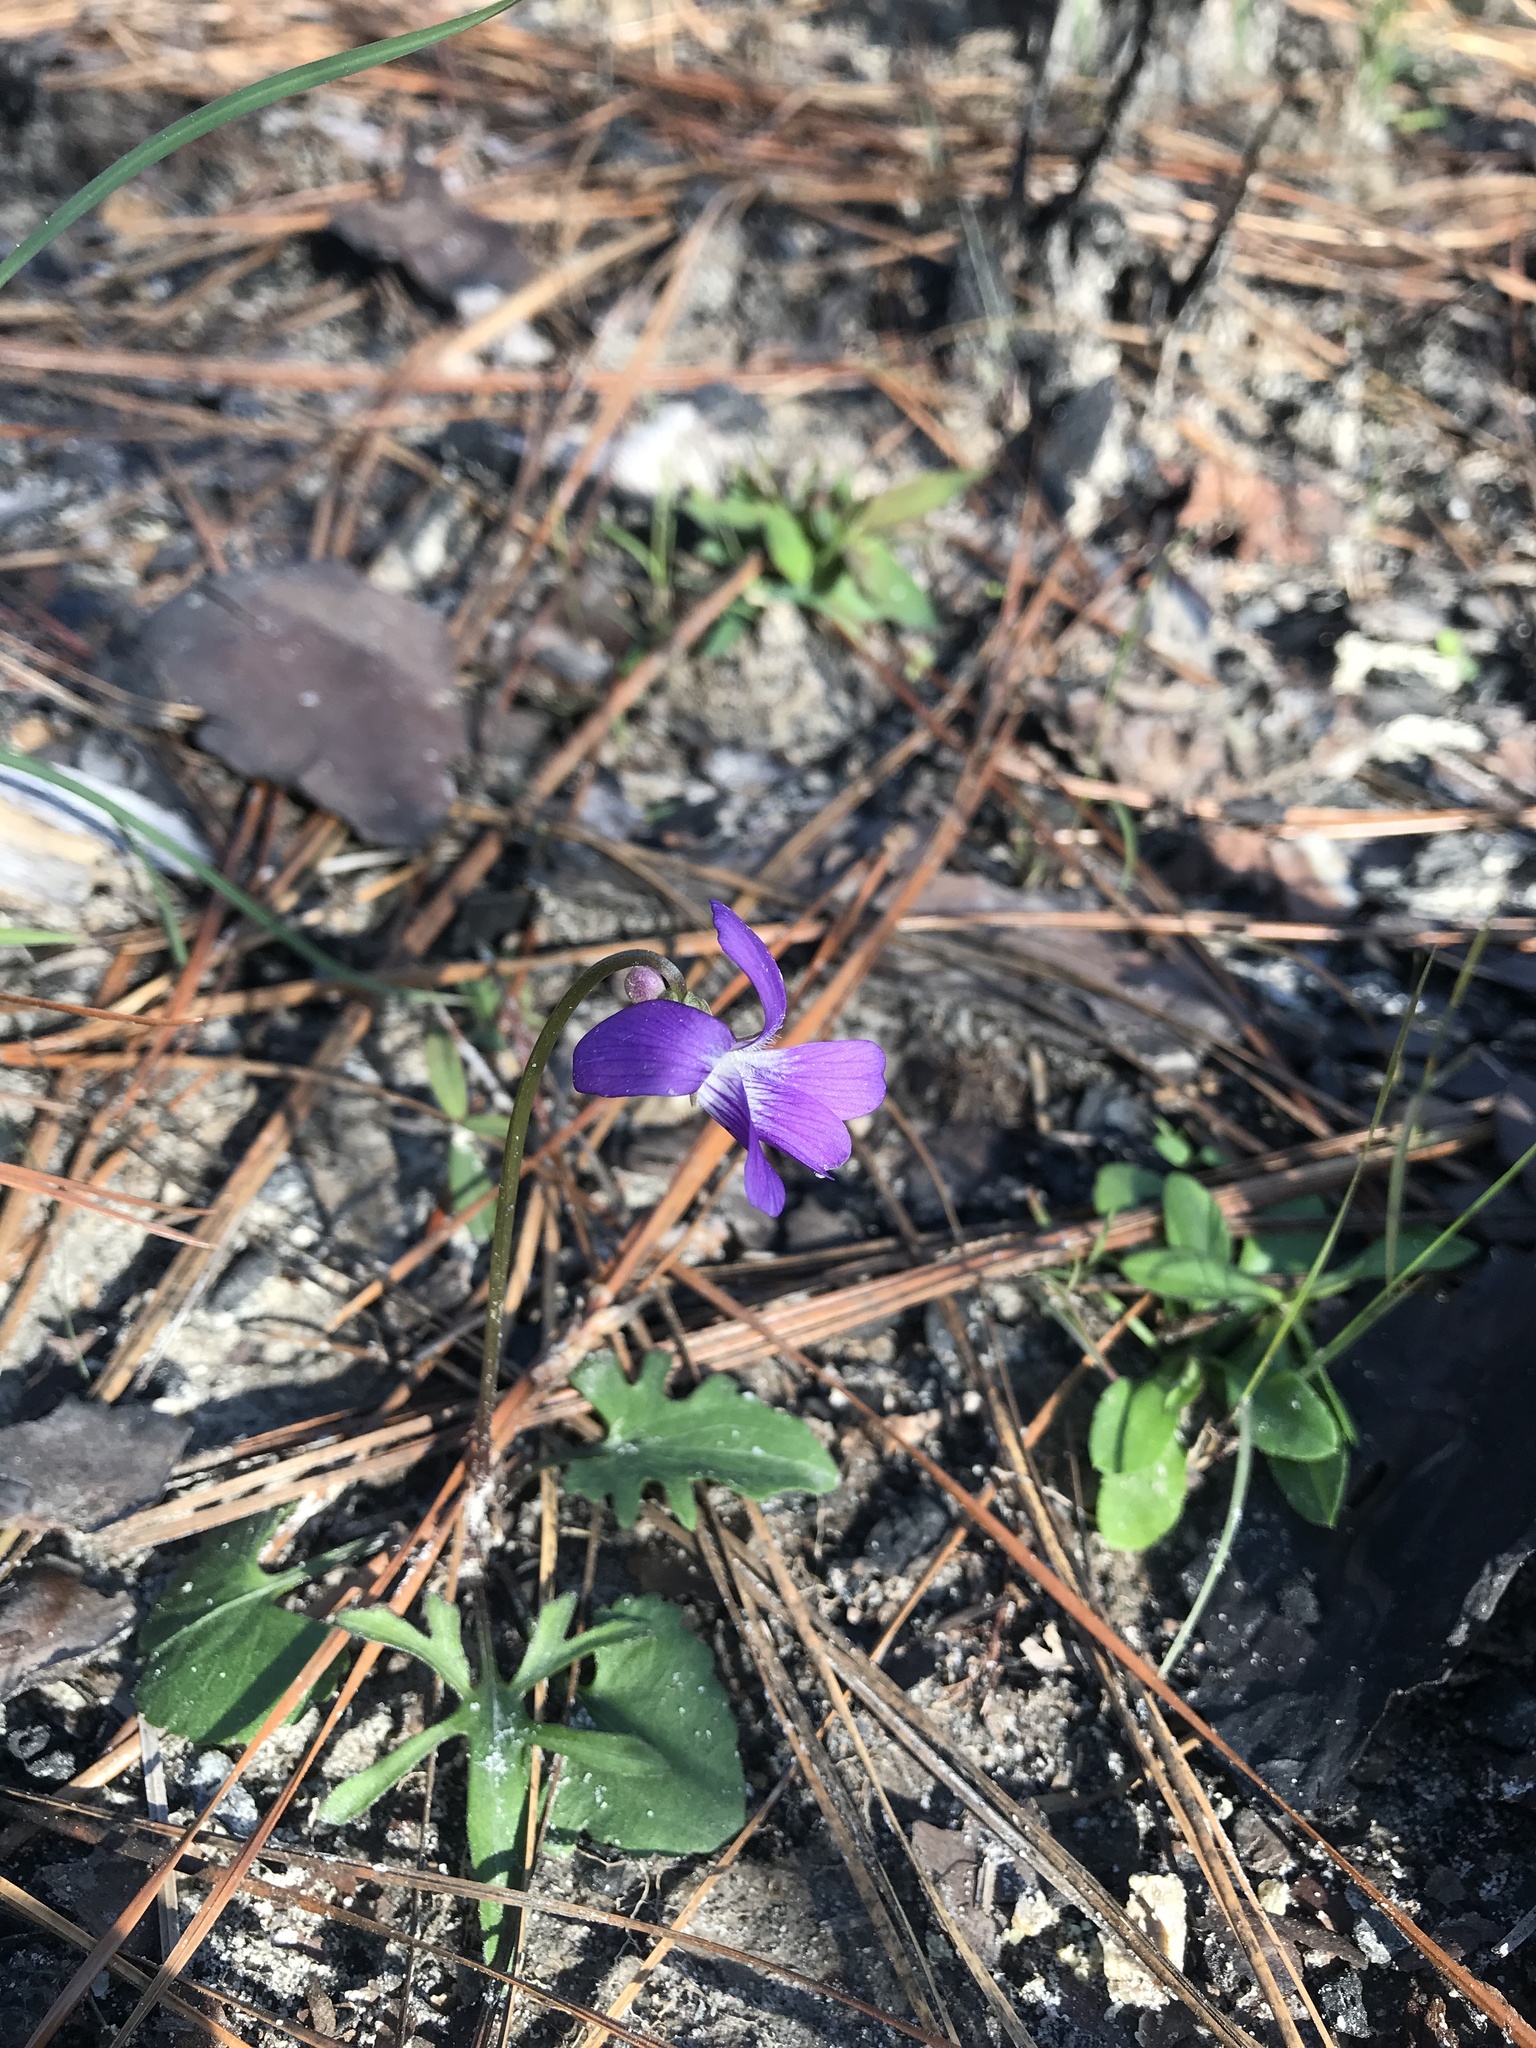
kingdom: Plantae
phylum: Tracheophyta
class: Magnoliopsida
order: Malpighiales
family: Violaceae
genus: Viola
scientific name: Viola septemloba
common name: Southern coast violet
